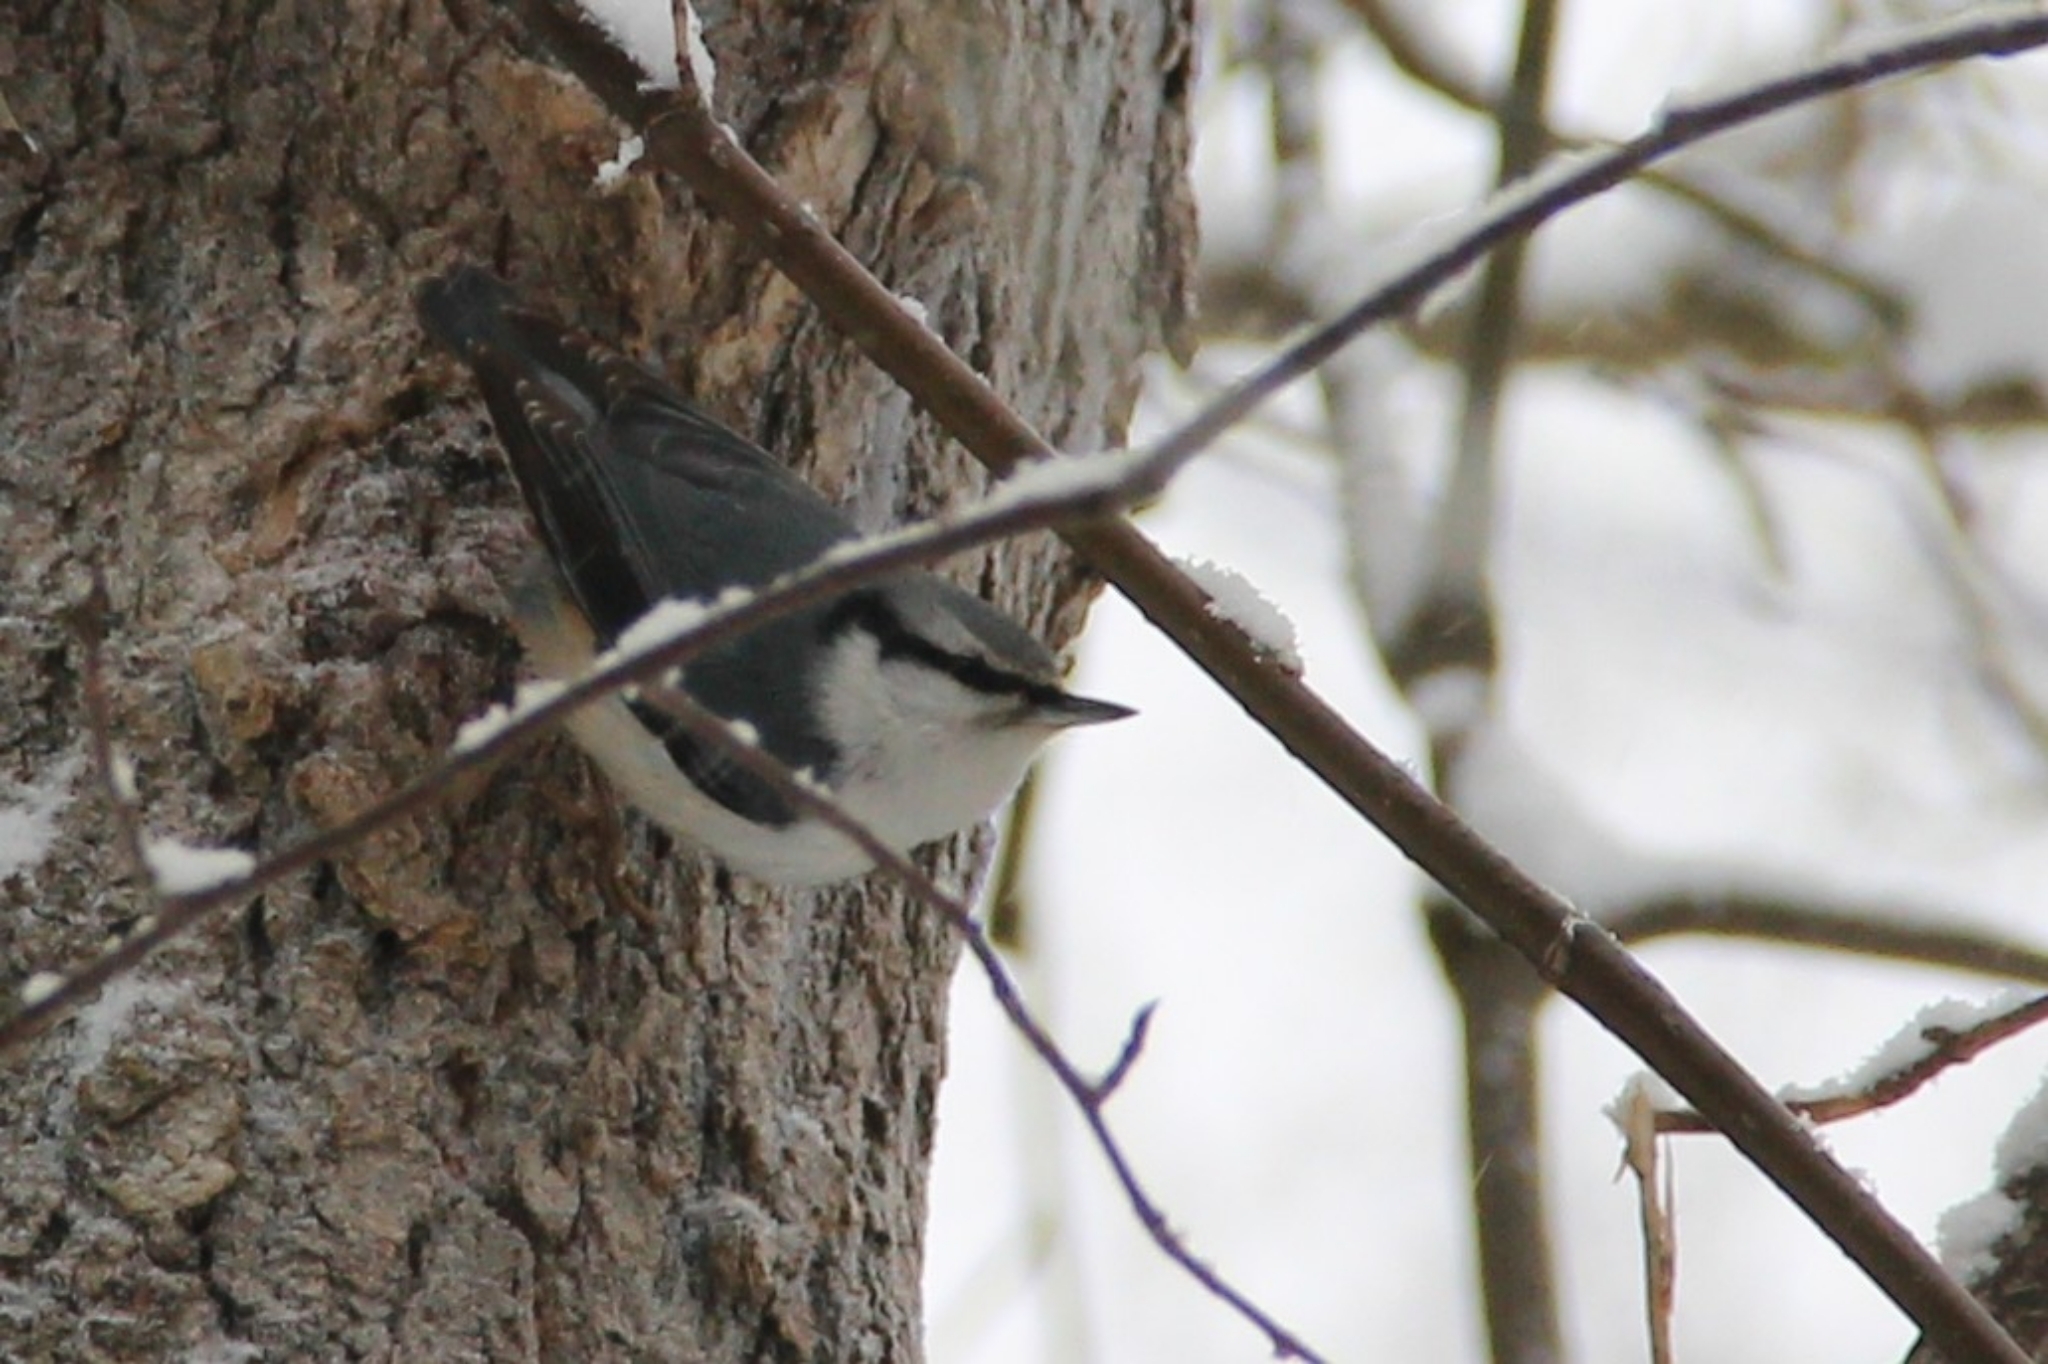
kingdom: Animalia
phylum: Chordata
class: Aves
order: Passeriformes
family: Sittidae
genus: Sitta
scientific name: Sitta europaea
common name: Eurasian nuthatch
